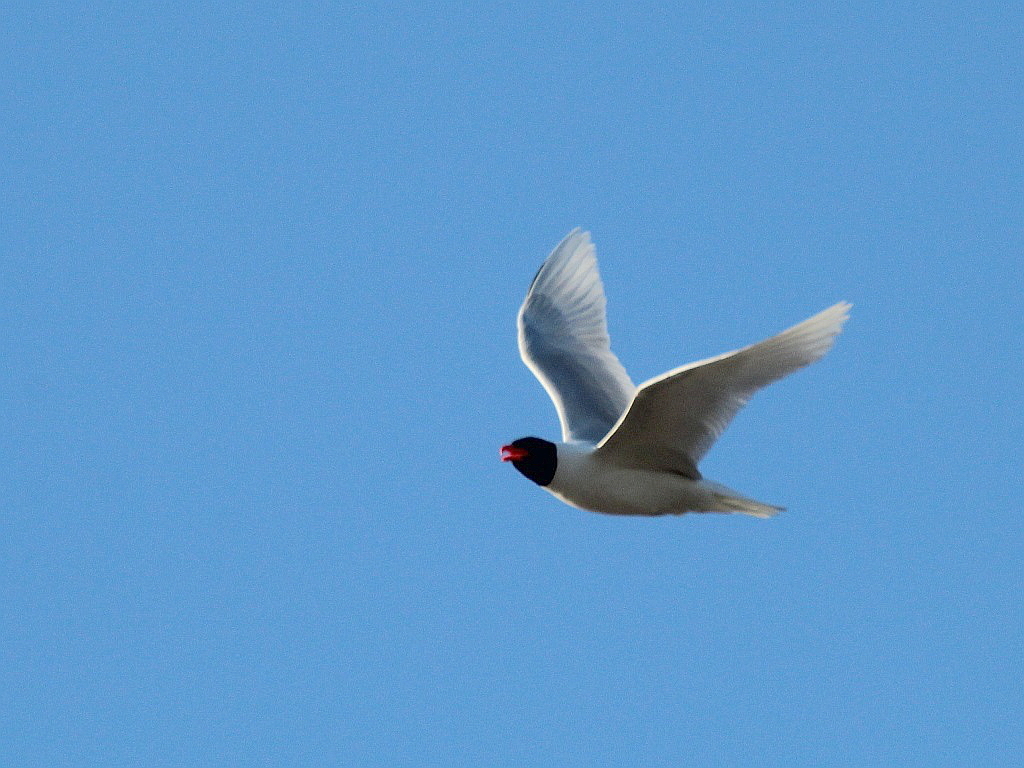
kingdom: Animalia
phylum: Chordata
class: Aves
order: Charadriiformes
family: Laridae
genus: Ichthyaetus
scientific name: Ichthyaetus melanocephalus
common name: Mediterranean gull
